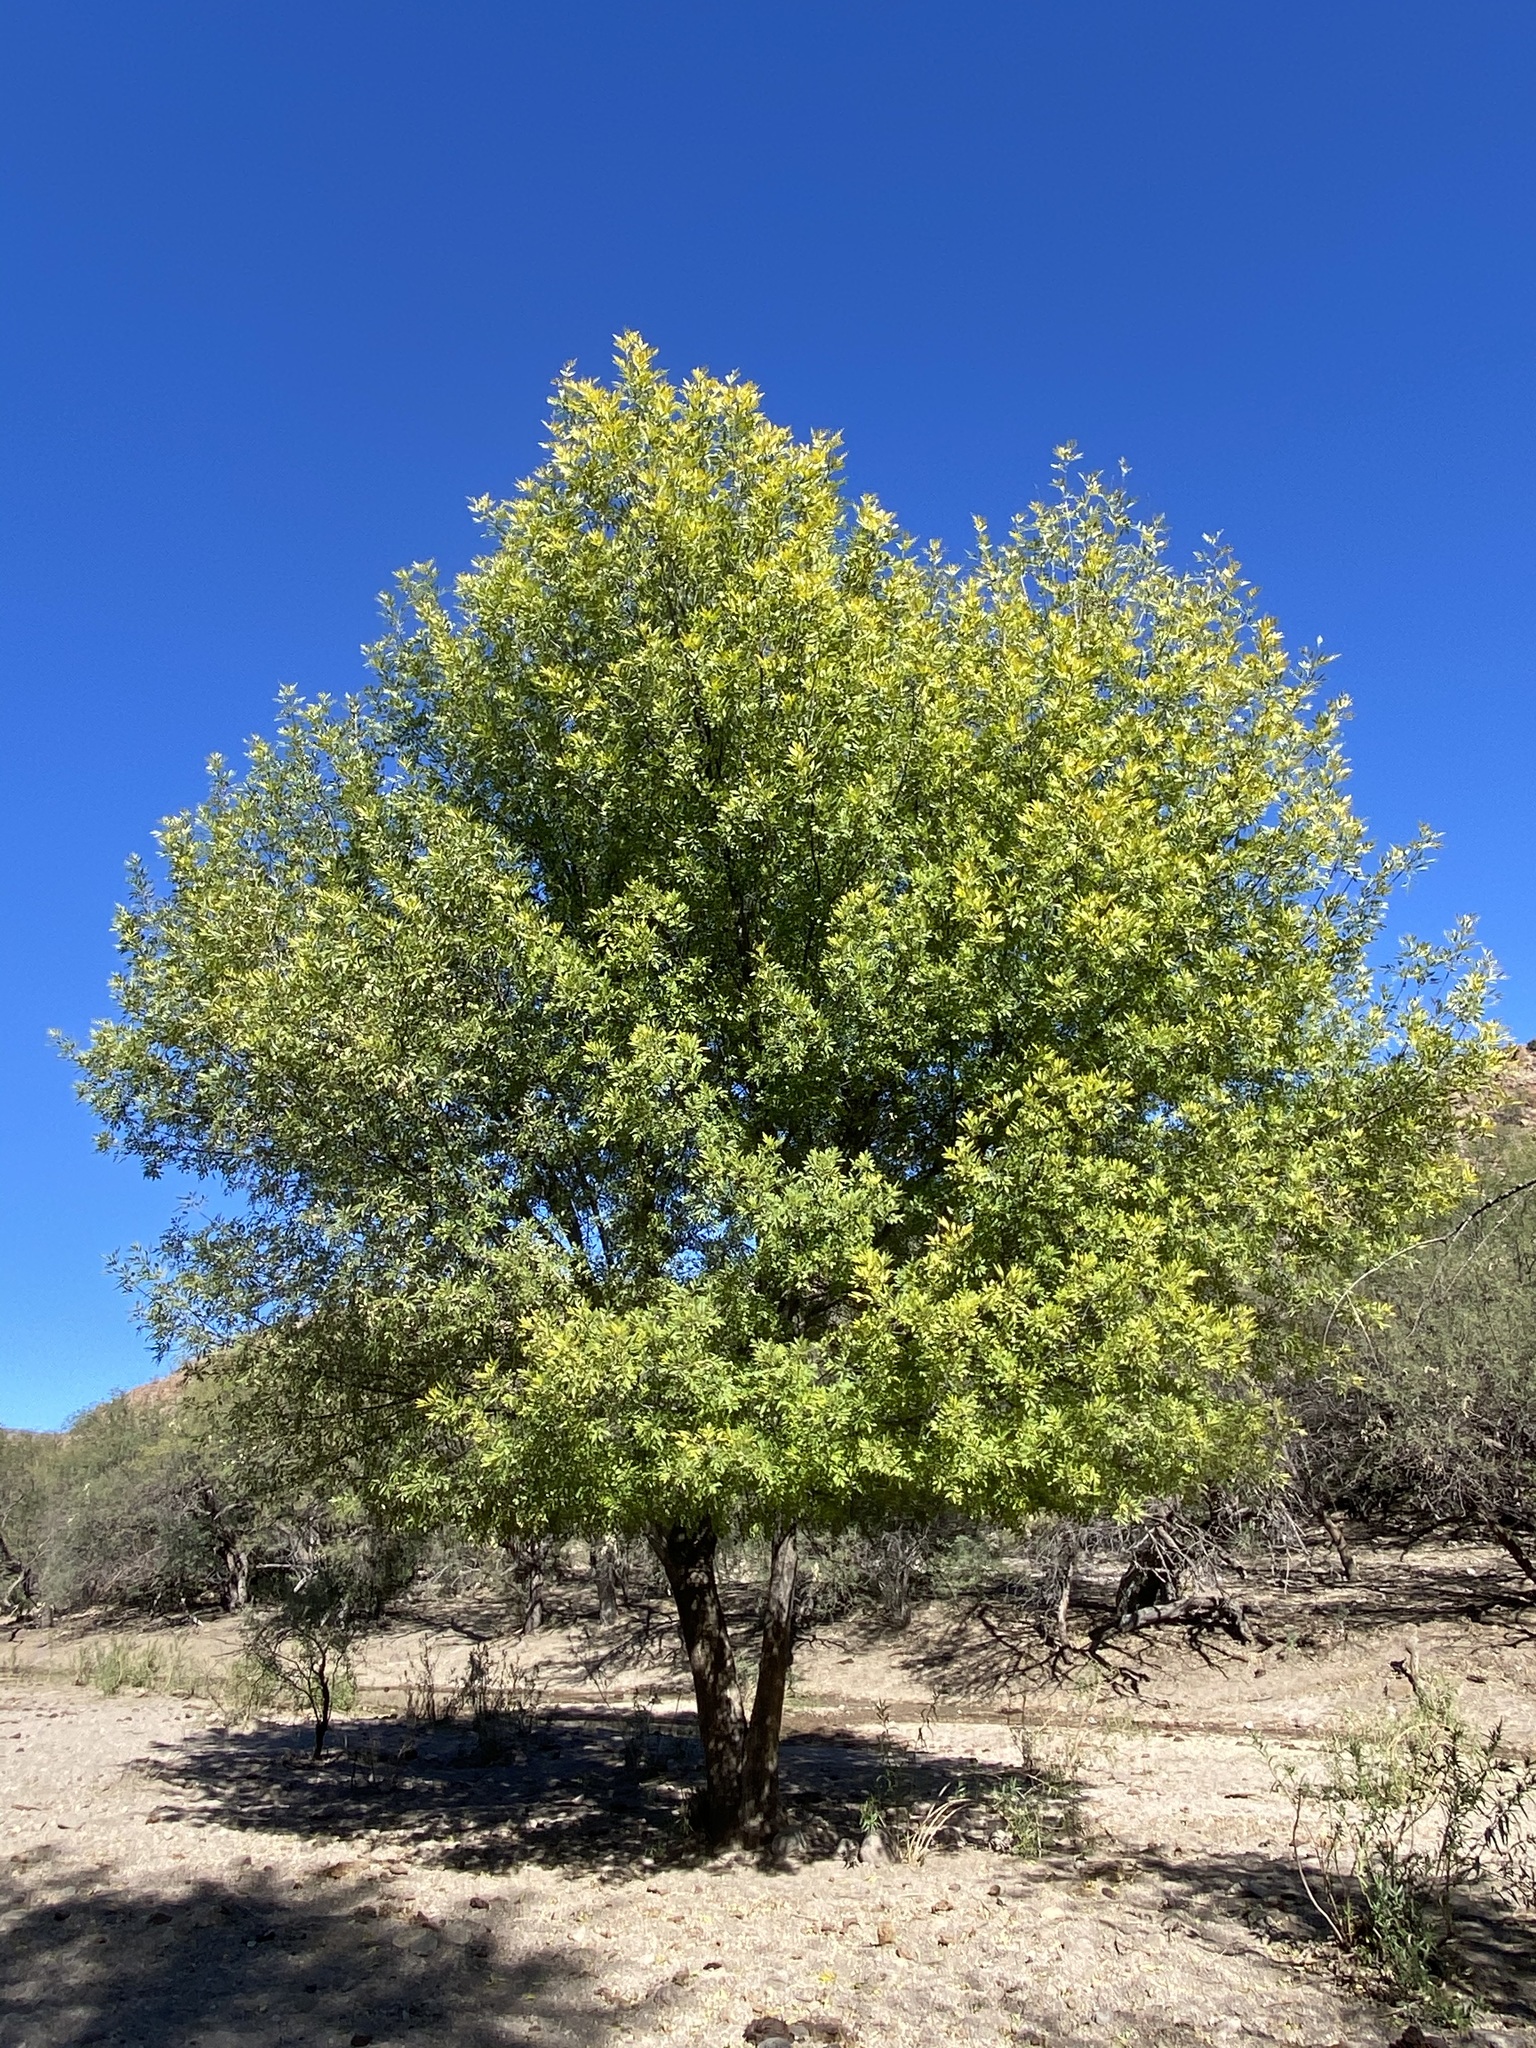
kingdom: Plantae
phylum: Tracheophyta
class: Magnoliopsida
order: Lamiales
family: Oleaceae
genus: Fraxinus
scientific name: Fraxinus velutina
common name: Arizon ash
